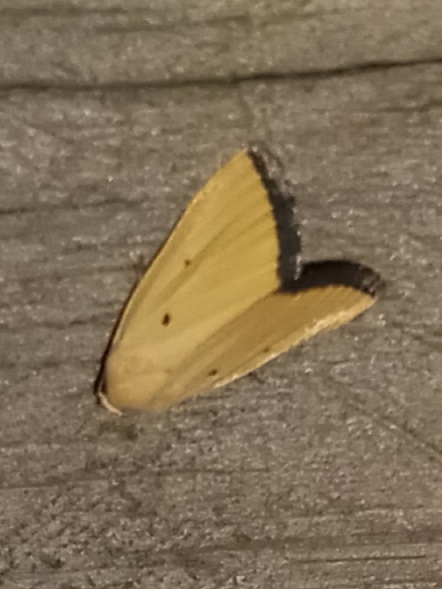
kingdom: Animalia
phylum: Arthropoda
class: Insecta
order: Lepidoptera
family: Noctuidae
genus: Marimatha
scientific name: Marimatha nigrofimbria
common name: Black-bordered lemon moth
